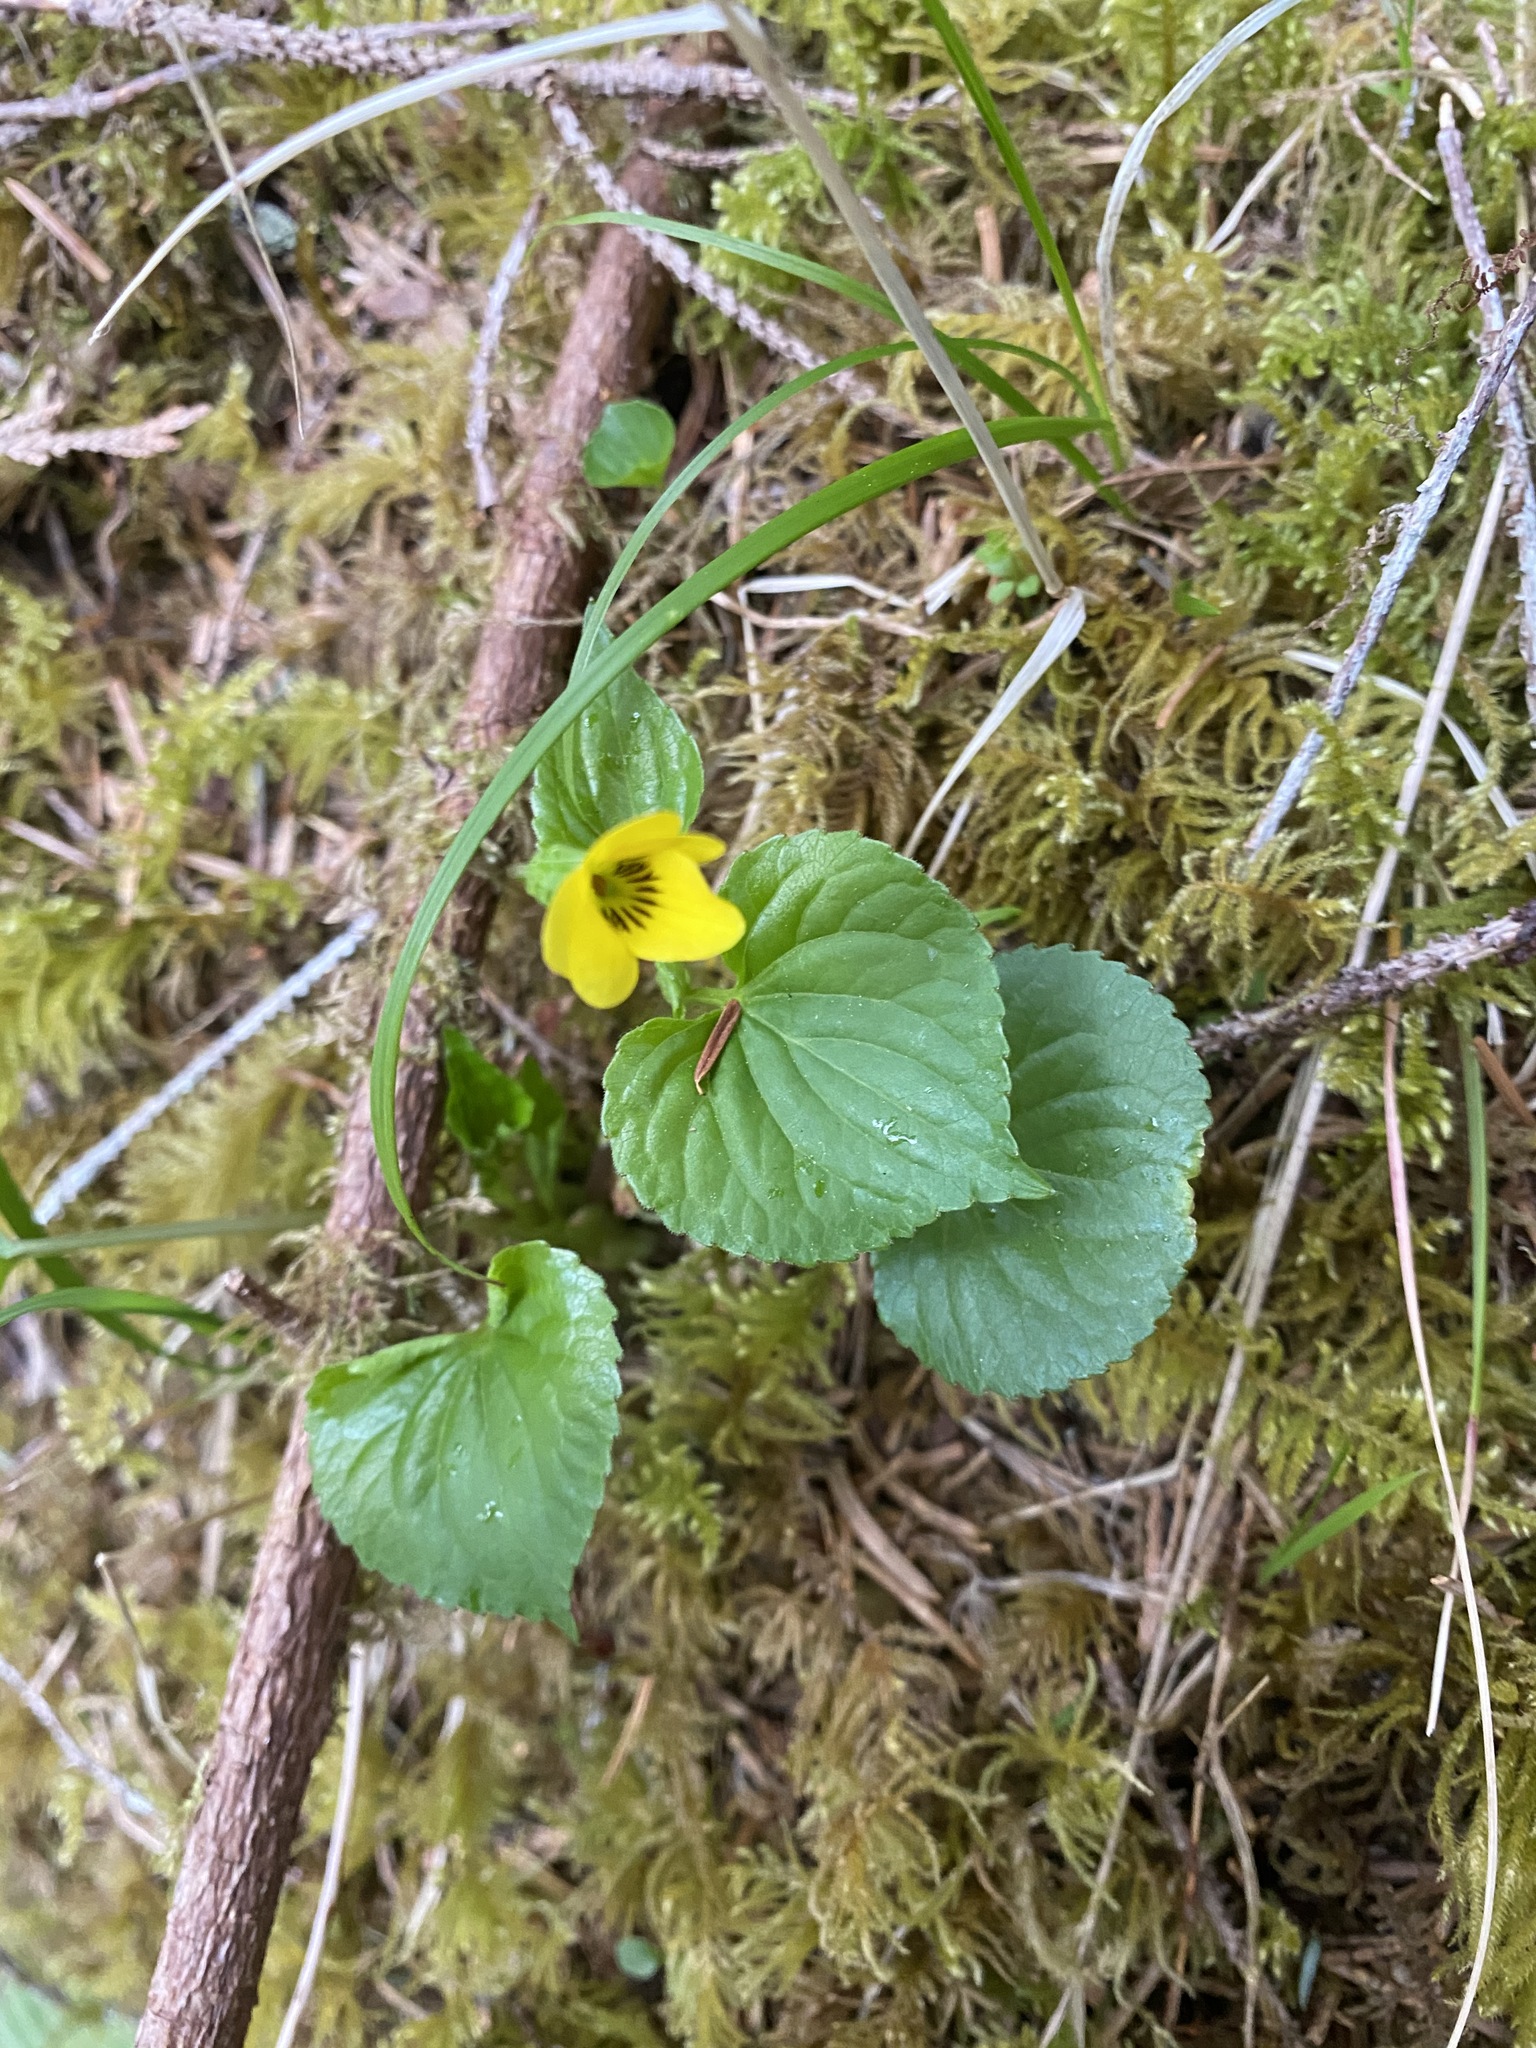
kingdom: Plantae
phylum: Tracheophyta
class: Magnoliopsida
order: Malpighiales
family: Violaceae
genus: Viola
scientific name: Viola glabella
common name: Stream violet
